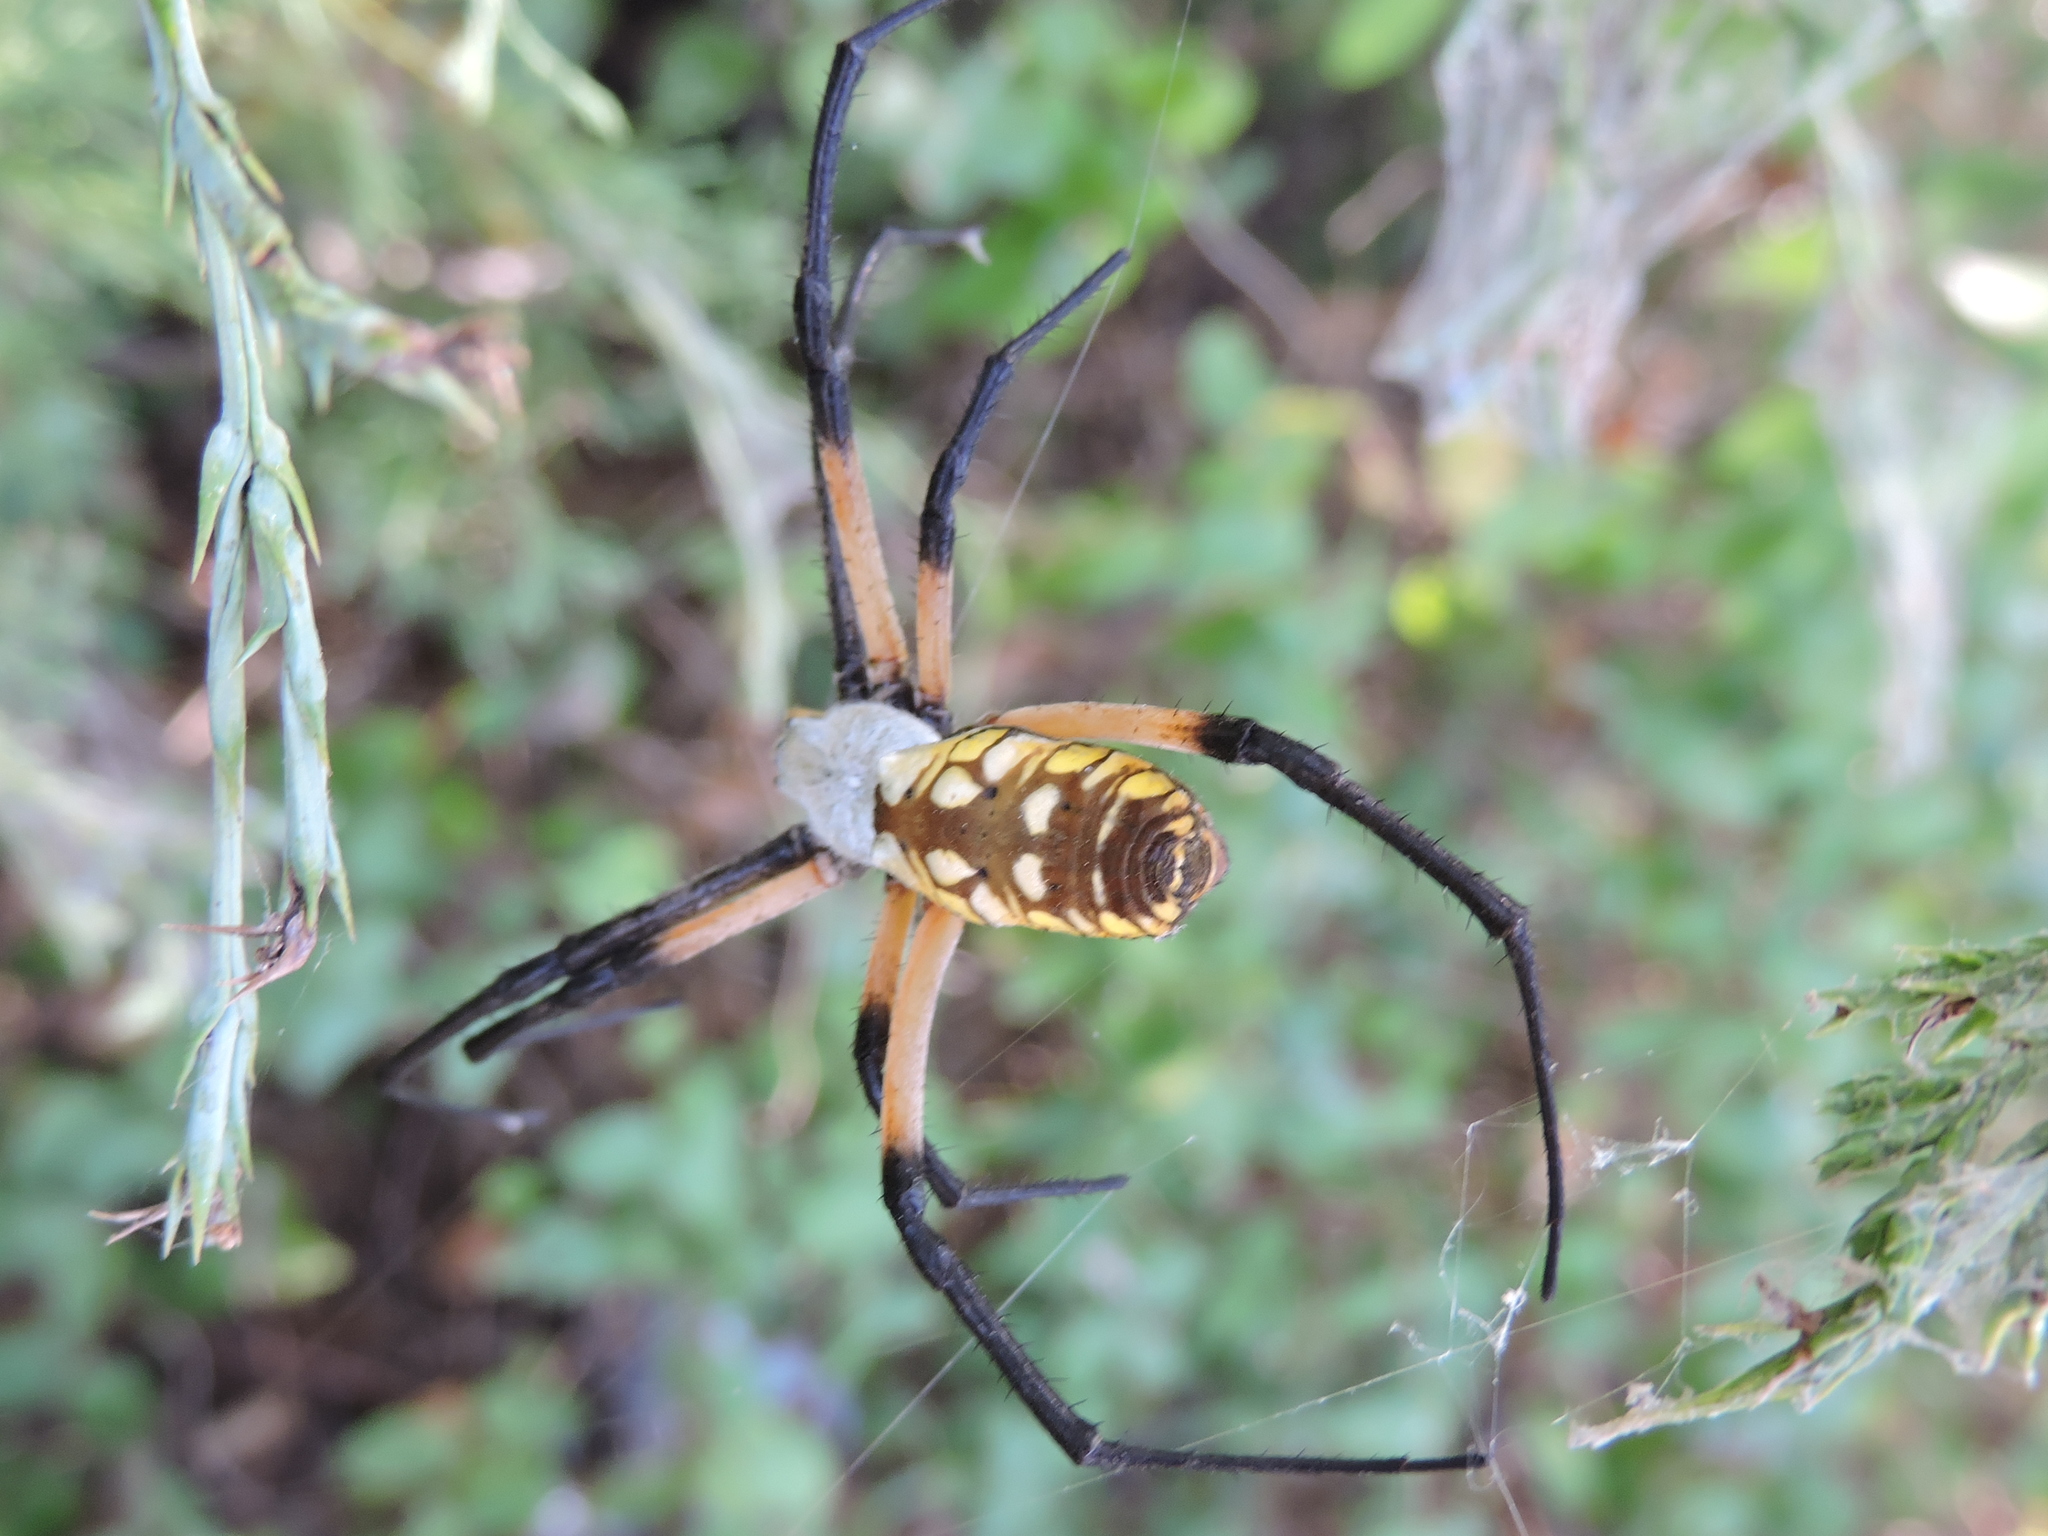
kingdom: Animalia
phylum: Arthropoda
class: Arachnida
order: Araneae
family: Araneidae
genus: Argiope
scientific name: Argiope aurantia
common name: Orb weavers
